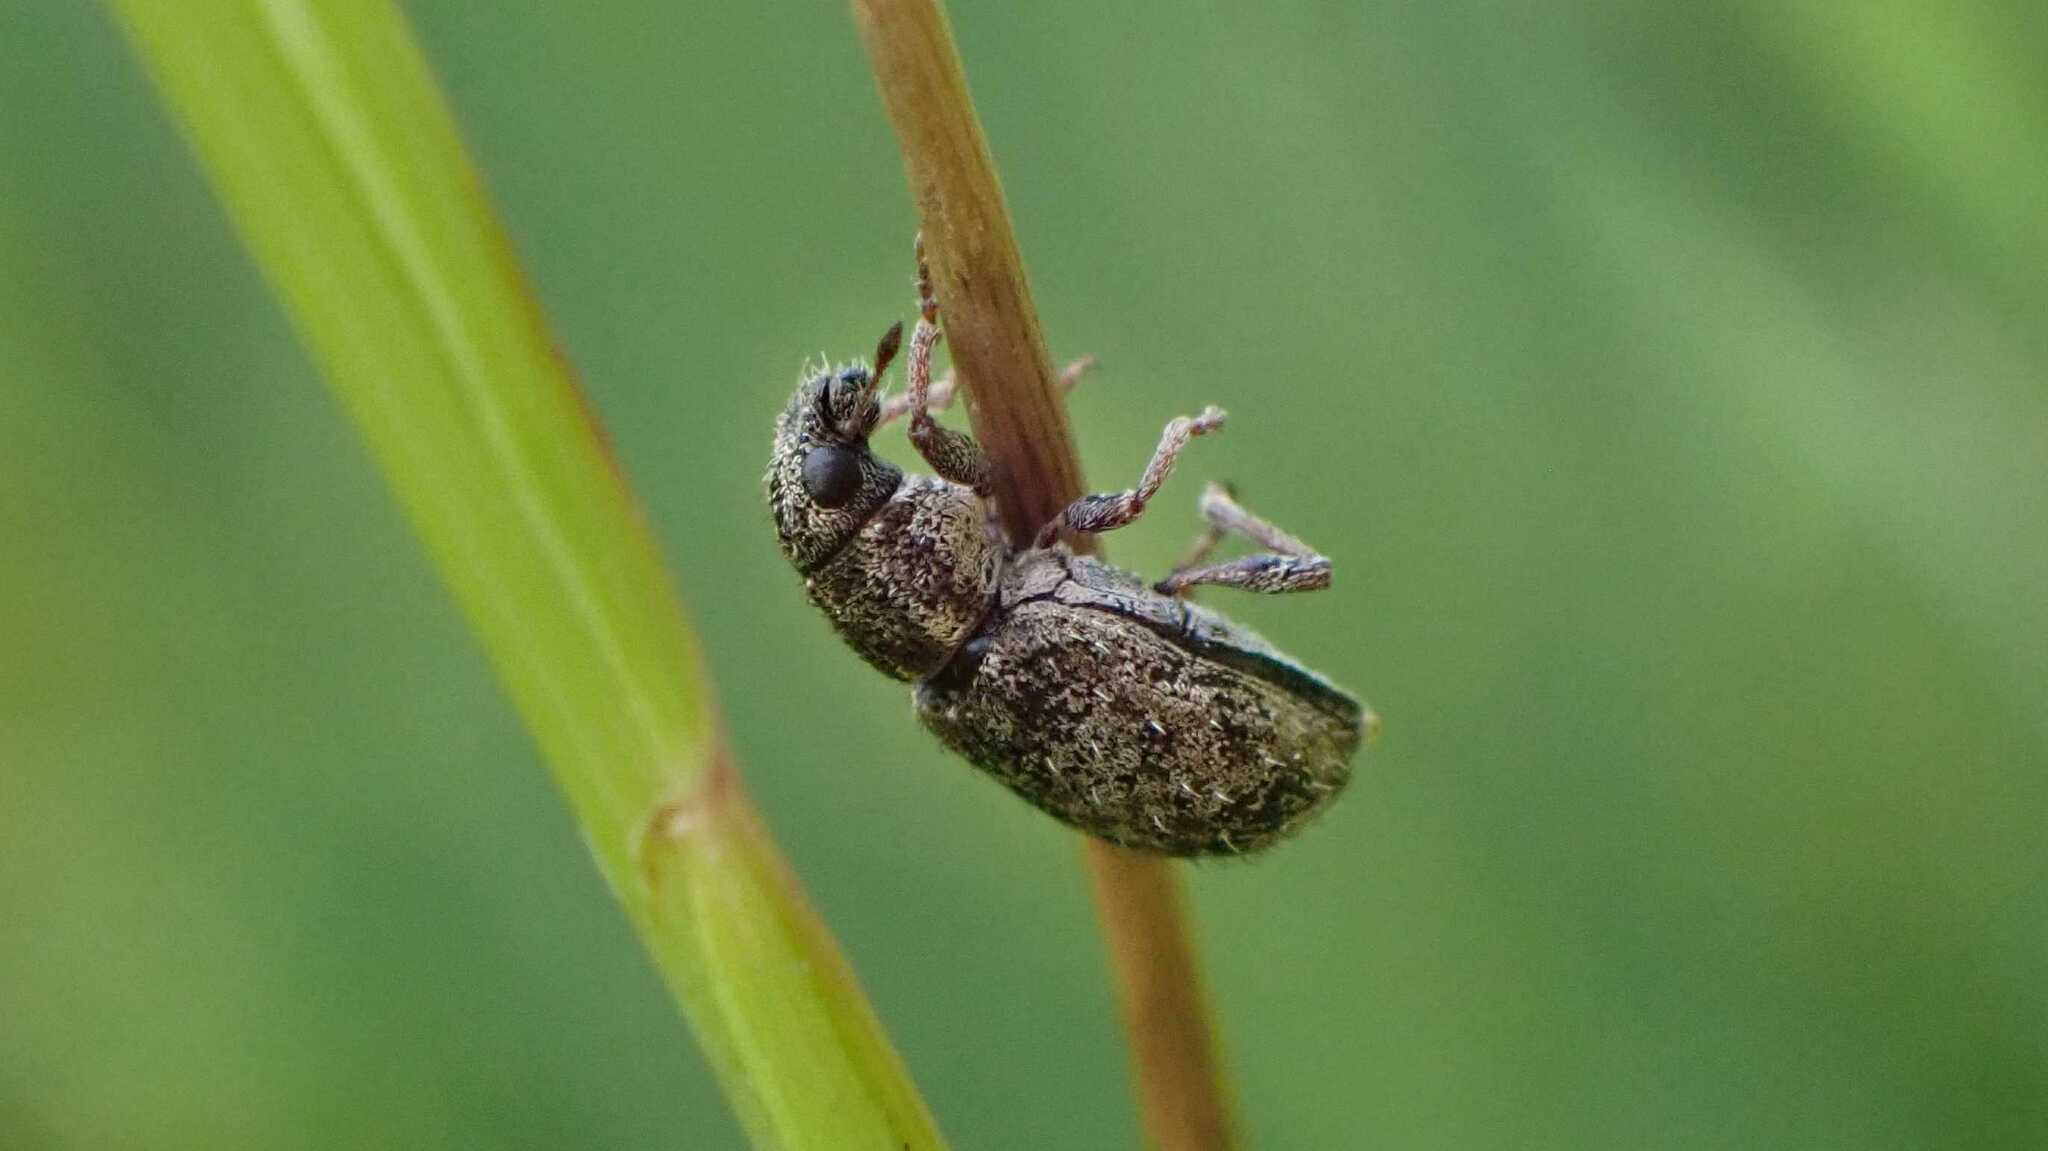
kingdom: Animalia
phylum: Arthropoda
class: Insecta
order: Coleoptera
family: Curculionidae
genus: Sitona
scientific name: Sitona hispidulus
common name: Clover weevil
